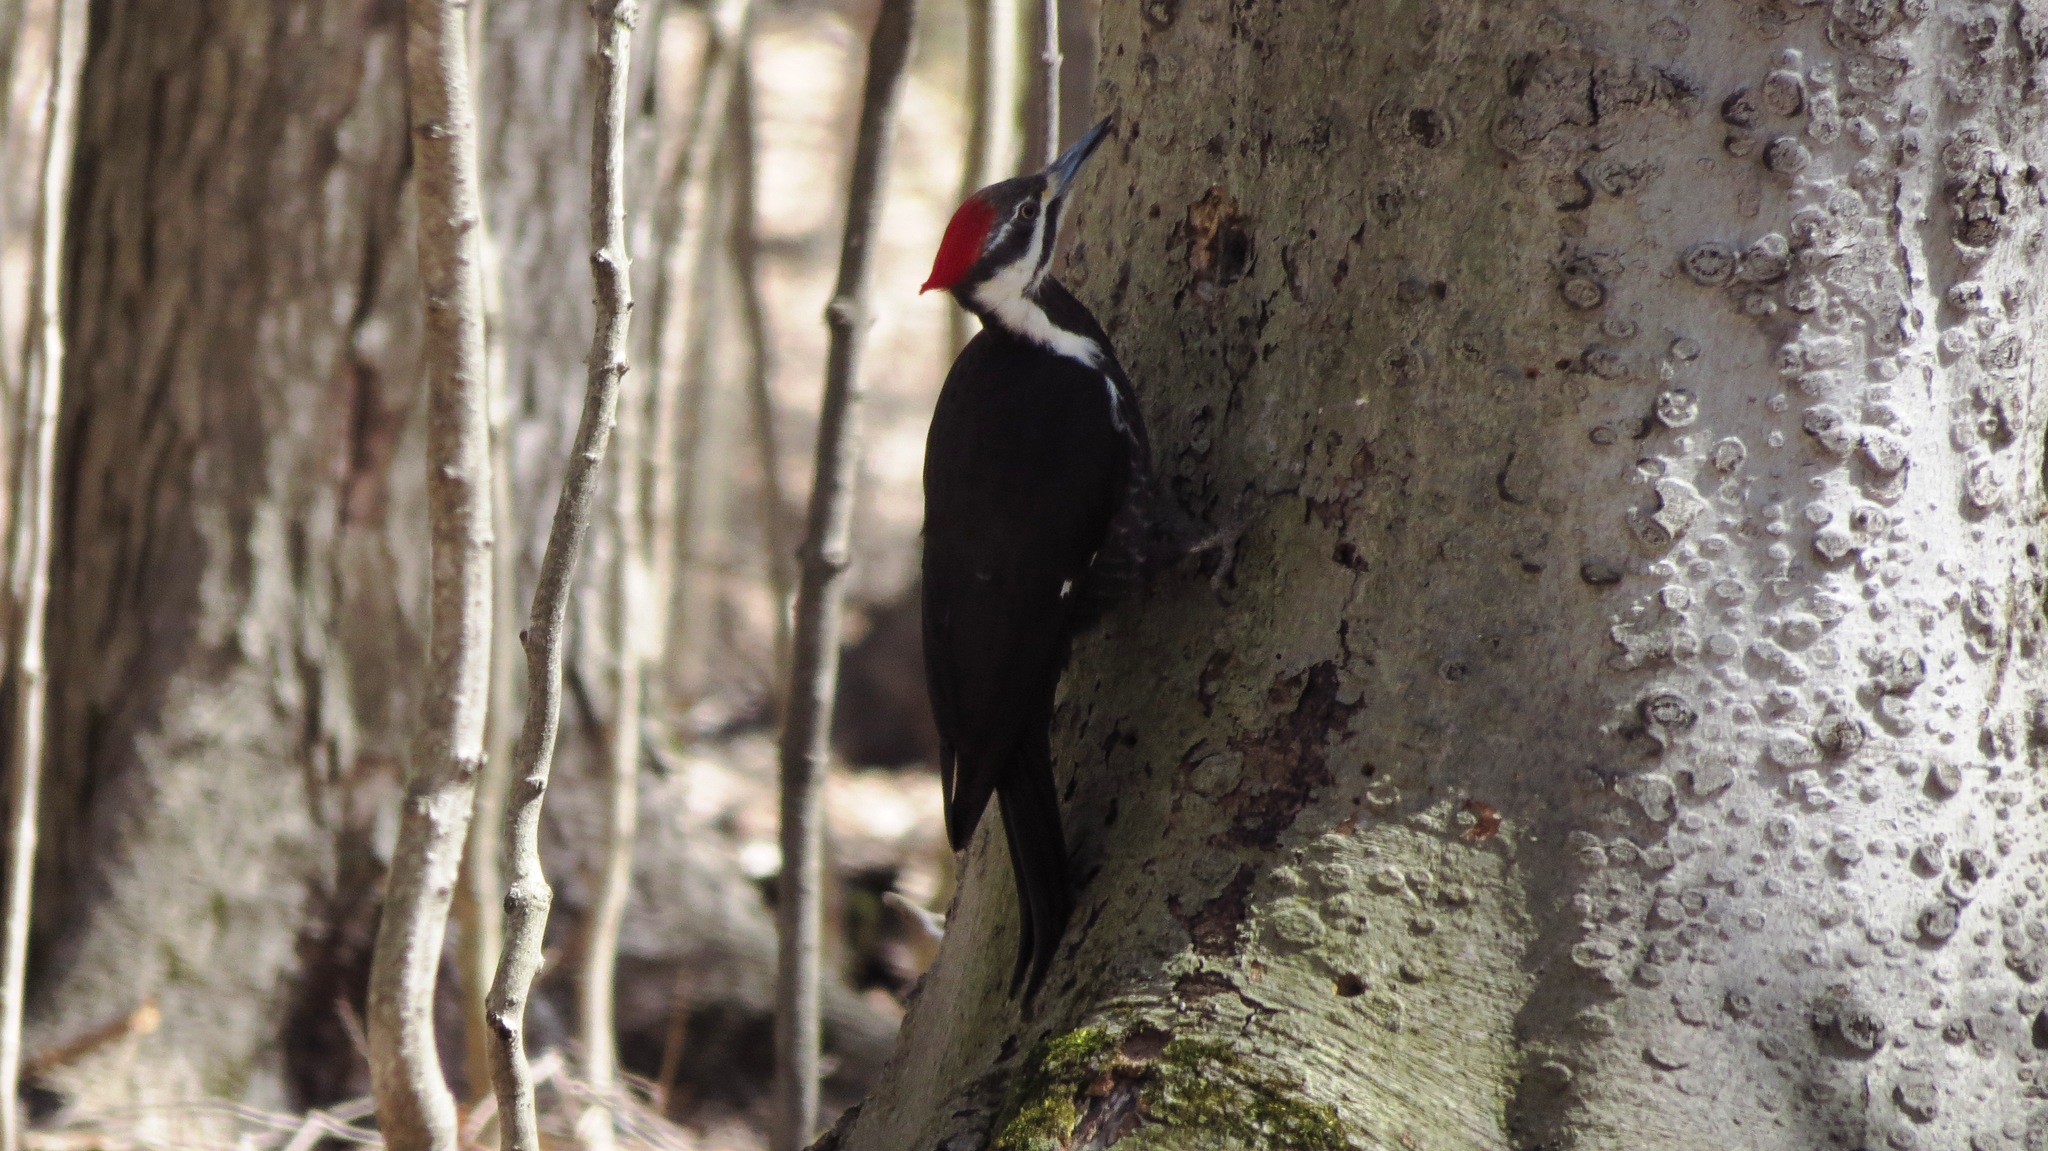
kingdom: Animalia
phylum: Chordata
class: Aves
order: Piciformes
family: Picidae
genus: Dryocopus
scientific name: Dryocopus pileatus
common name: Pileated woodpecker
